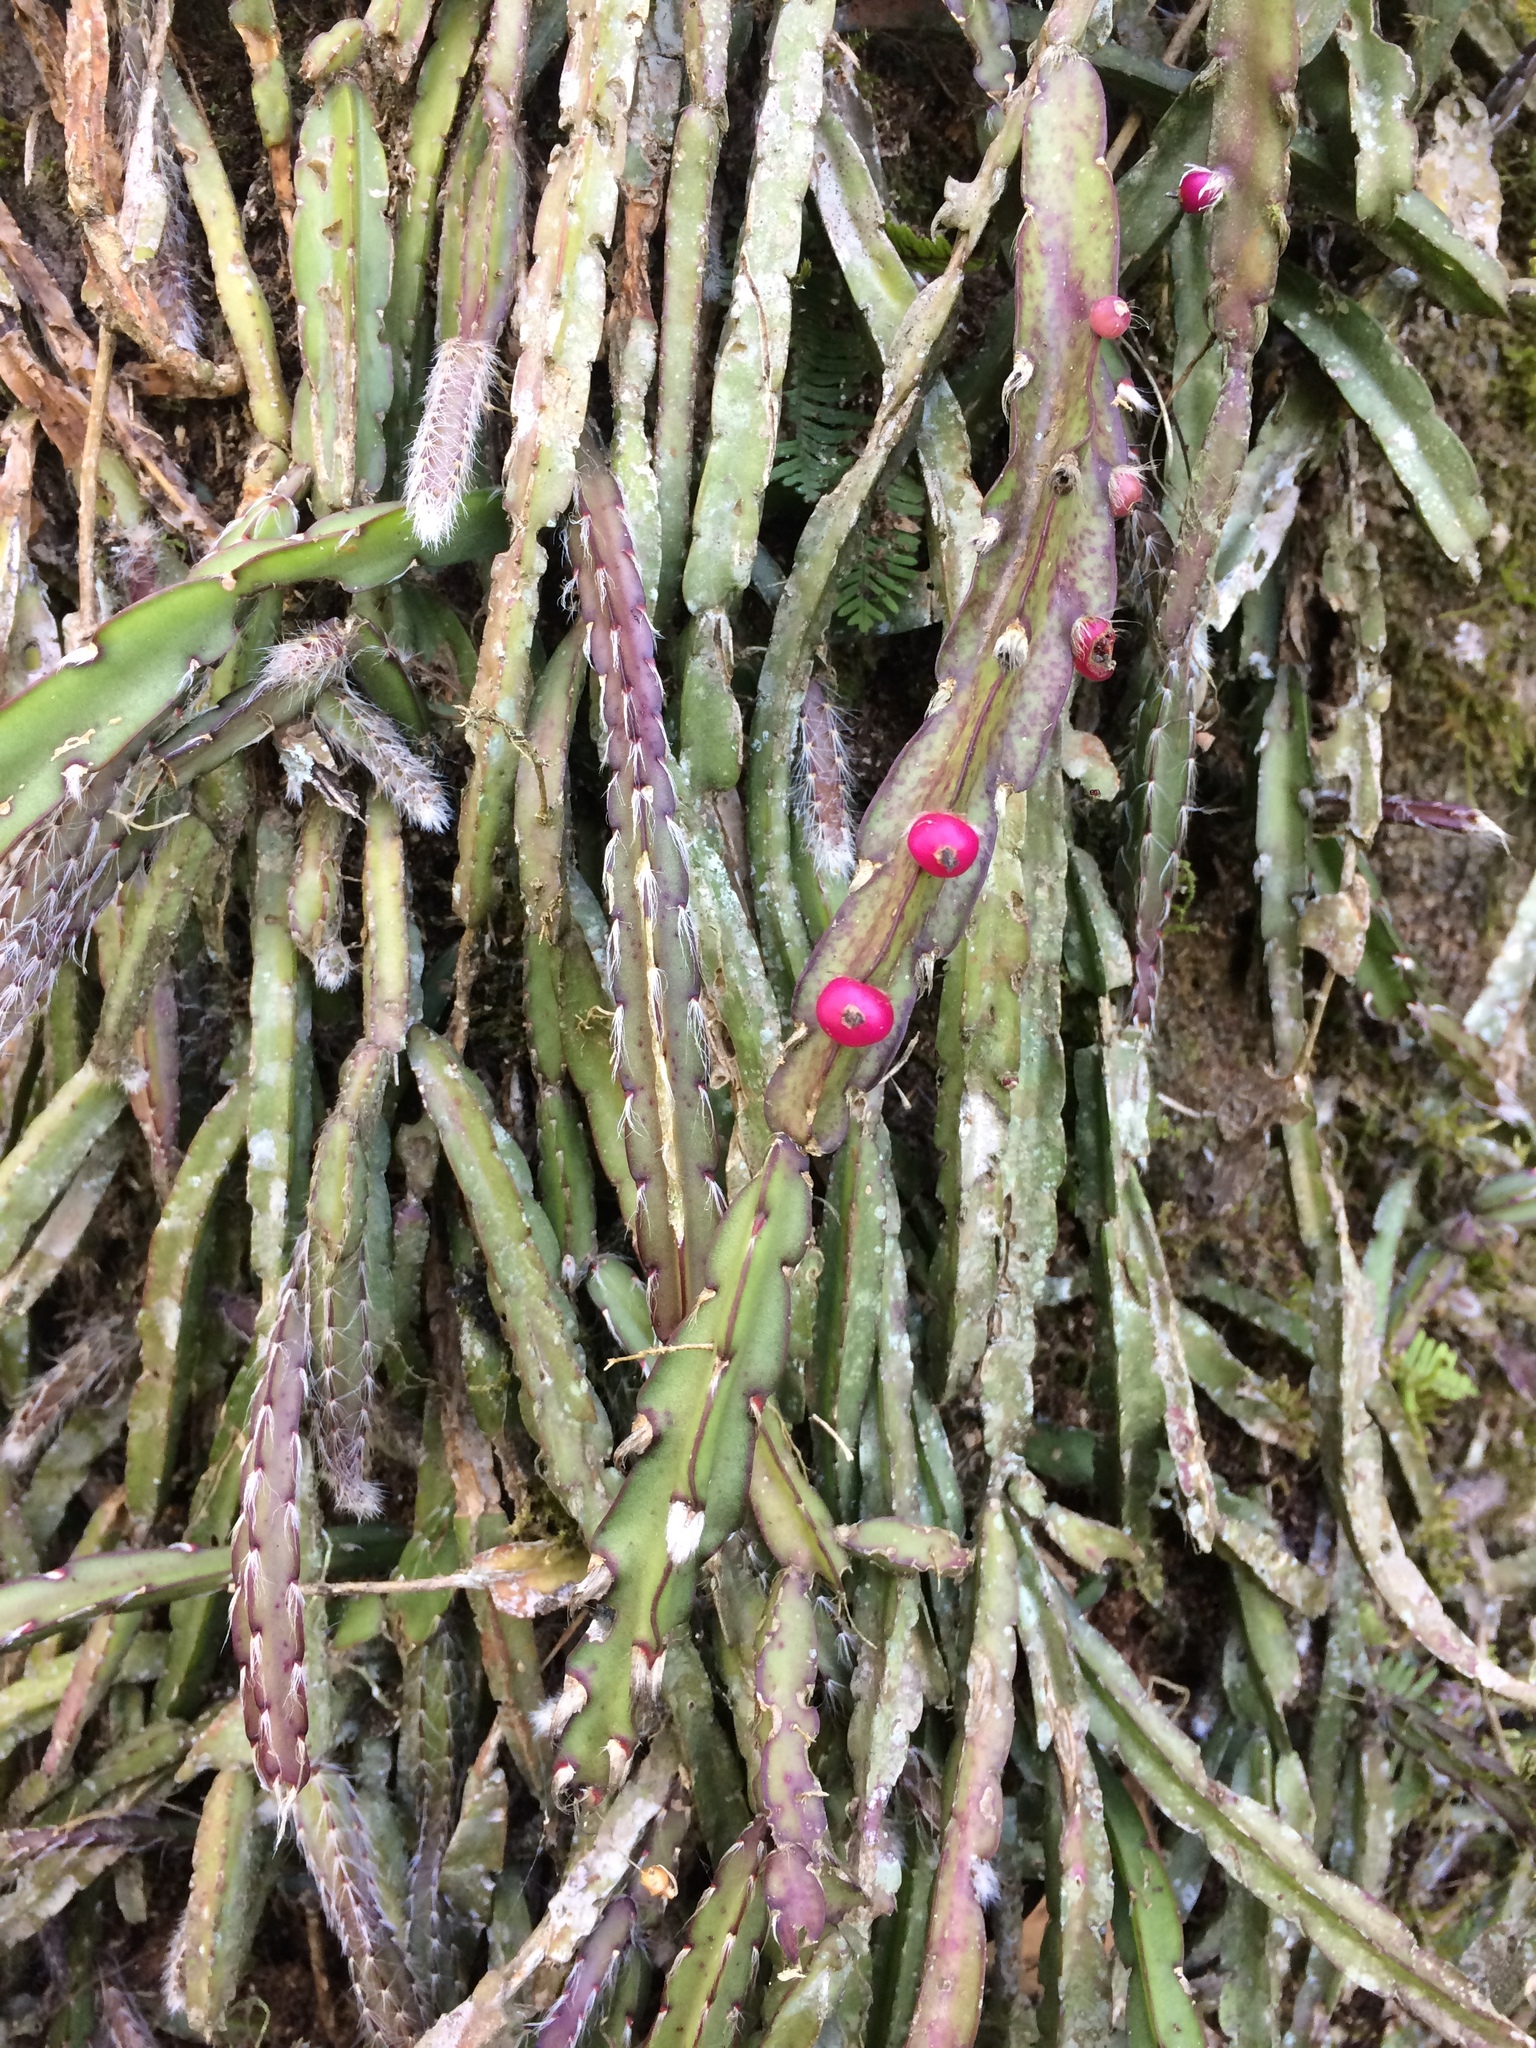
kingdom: Plantae
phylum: Tracheophyta
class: Magnoliopsida
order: Caryophyllales
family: Cactaceae
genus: Lepismium
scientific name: Lepismium cruciforme
